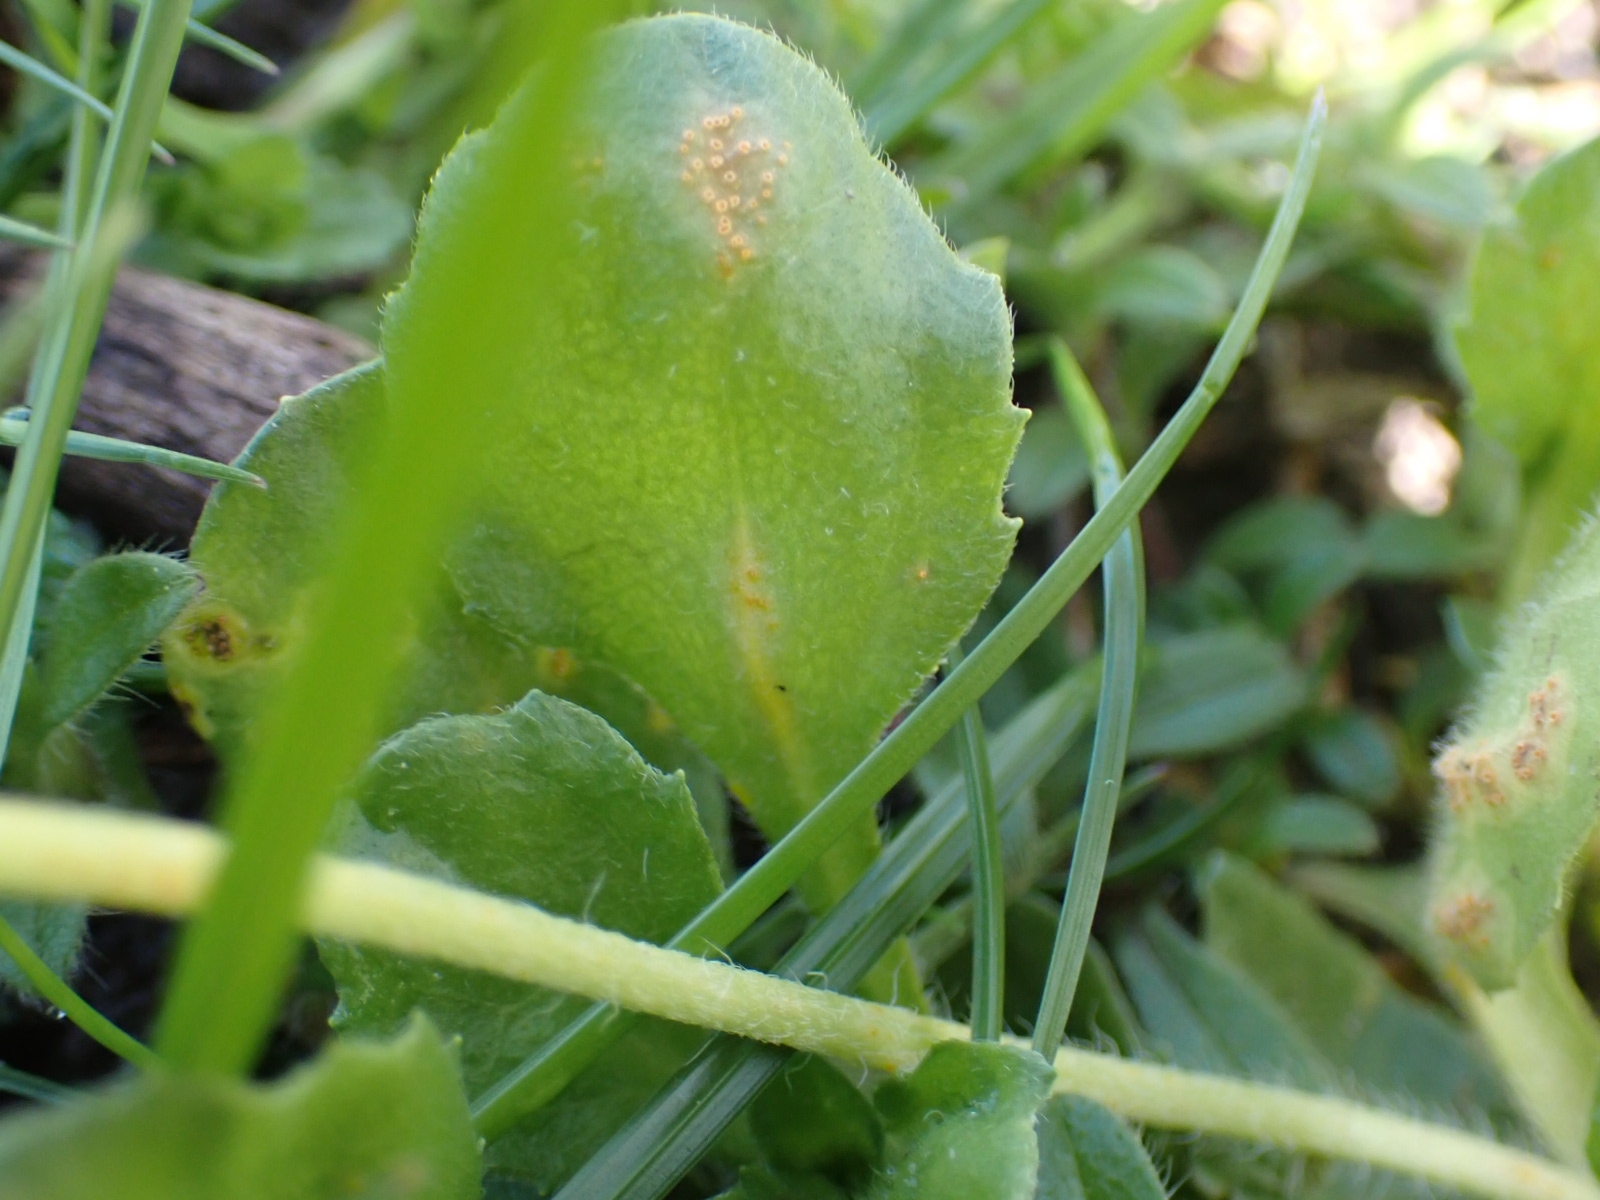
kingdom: Fungi
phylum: Basidiomycota
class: Pucciniomycetes
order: Pucciniales
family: Pucciniaceae
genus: Puccinia
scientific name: Puccinia lagenophorae
